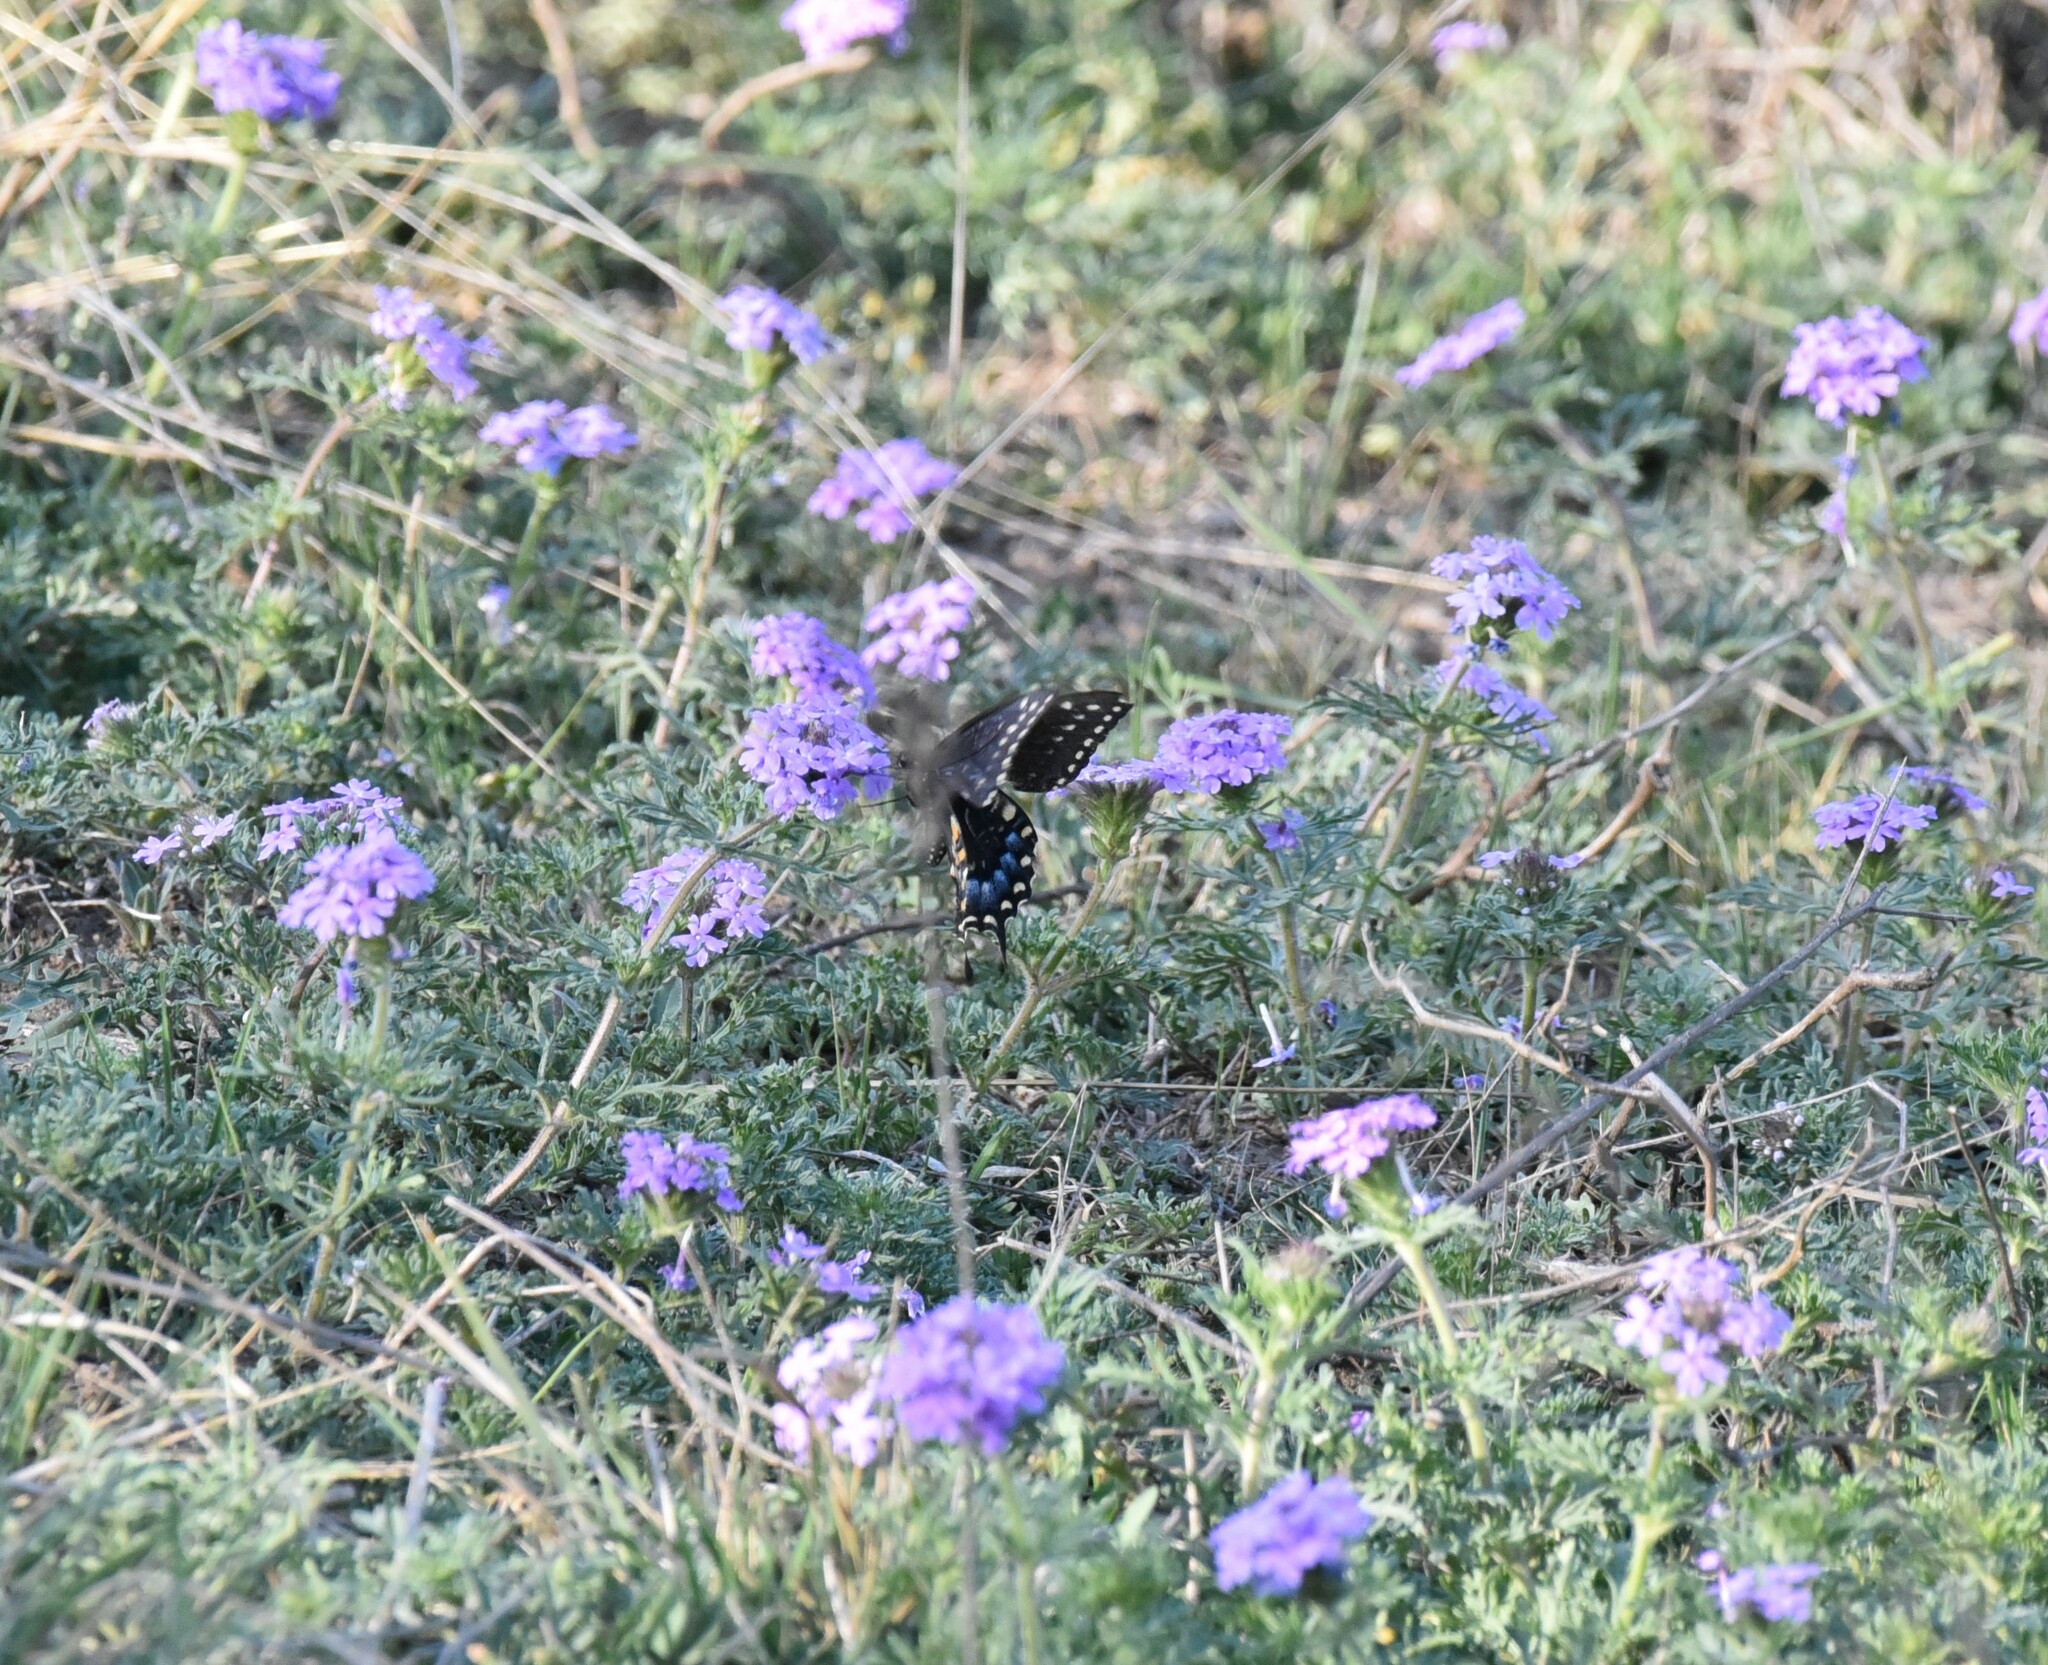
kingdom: Animalia
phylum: Arthropoda
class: Insecta
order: Lepidoptera
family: Papilionidae
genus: Papilio
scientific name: Papilio polyxenes
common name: Black swallowtail
